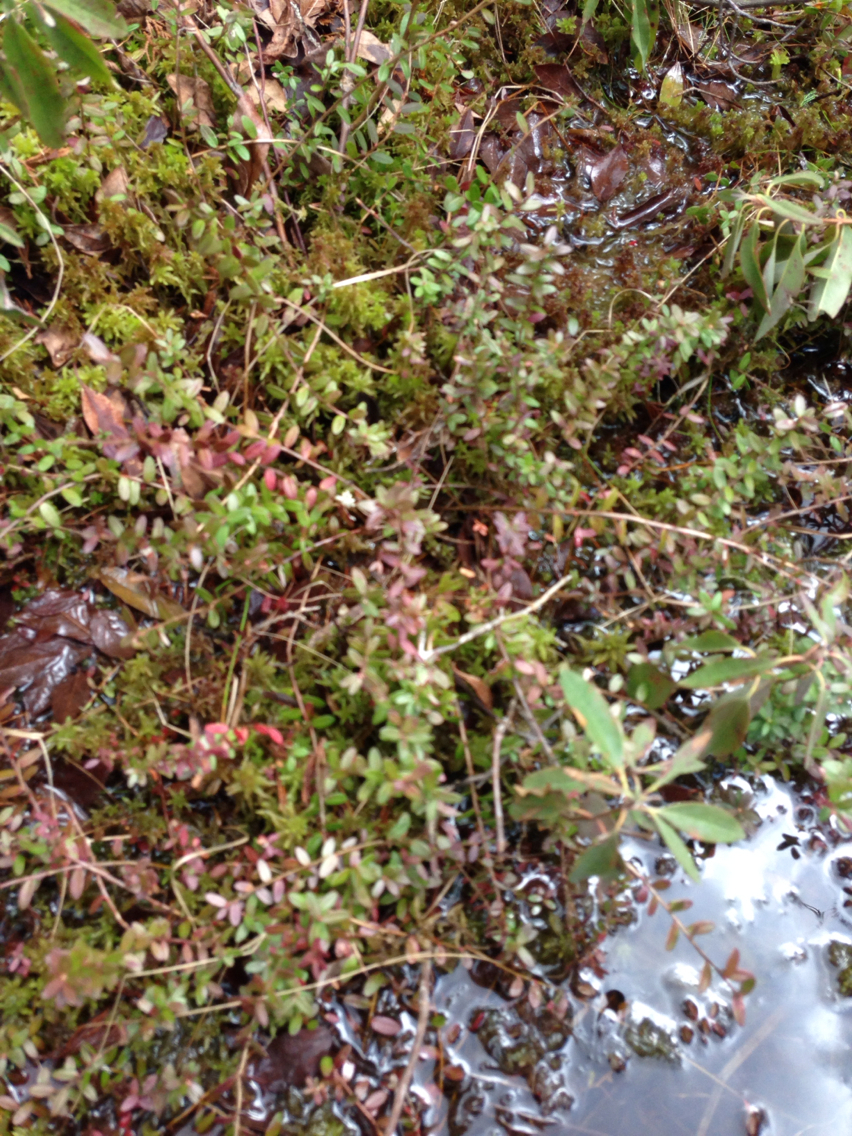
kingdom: Plantae
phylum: Tracheophyta
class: Magnoliopsida
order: Ericales
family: Ericaceae
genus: Vaccinium
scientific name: Vaccinium macrocarpon
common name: American cranberry
